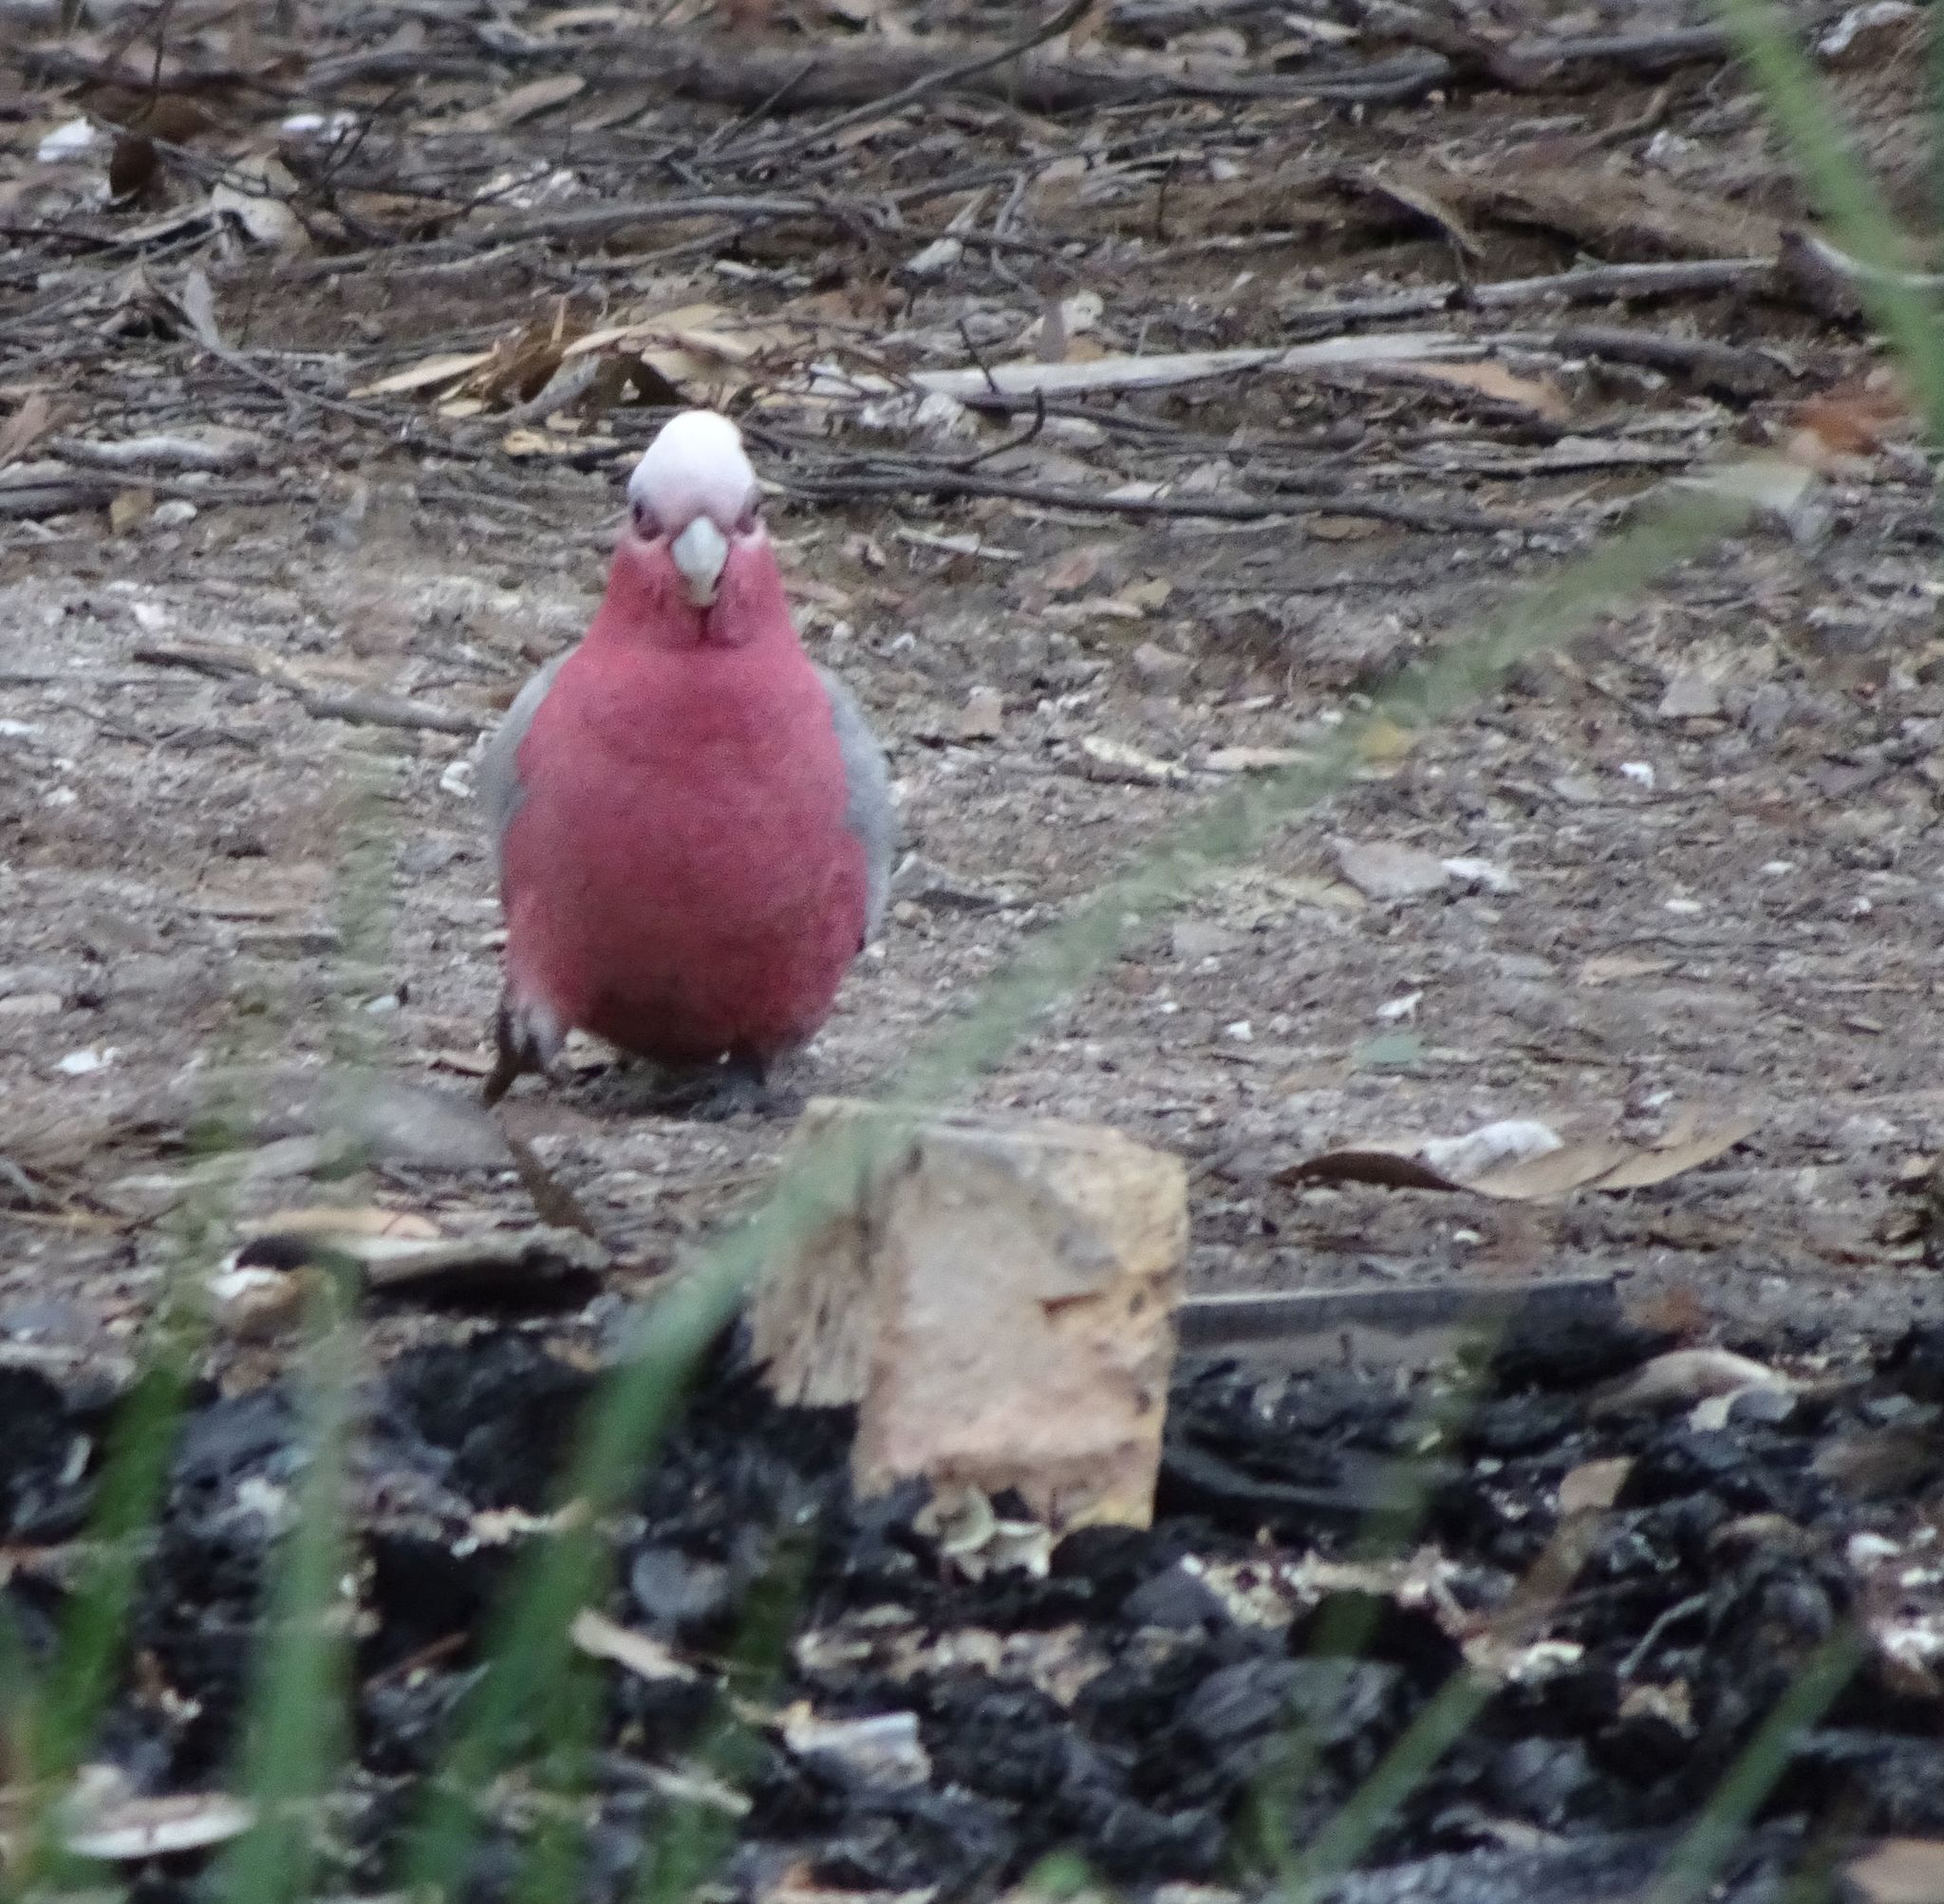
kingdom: Animalia
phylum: Chordata
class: Aves
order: Psittaciformes
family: Psittacidae
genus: Eolophus
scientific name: Eolophus roseicapilla
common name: Galah
